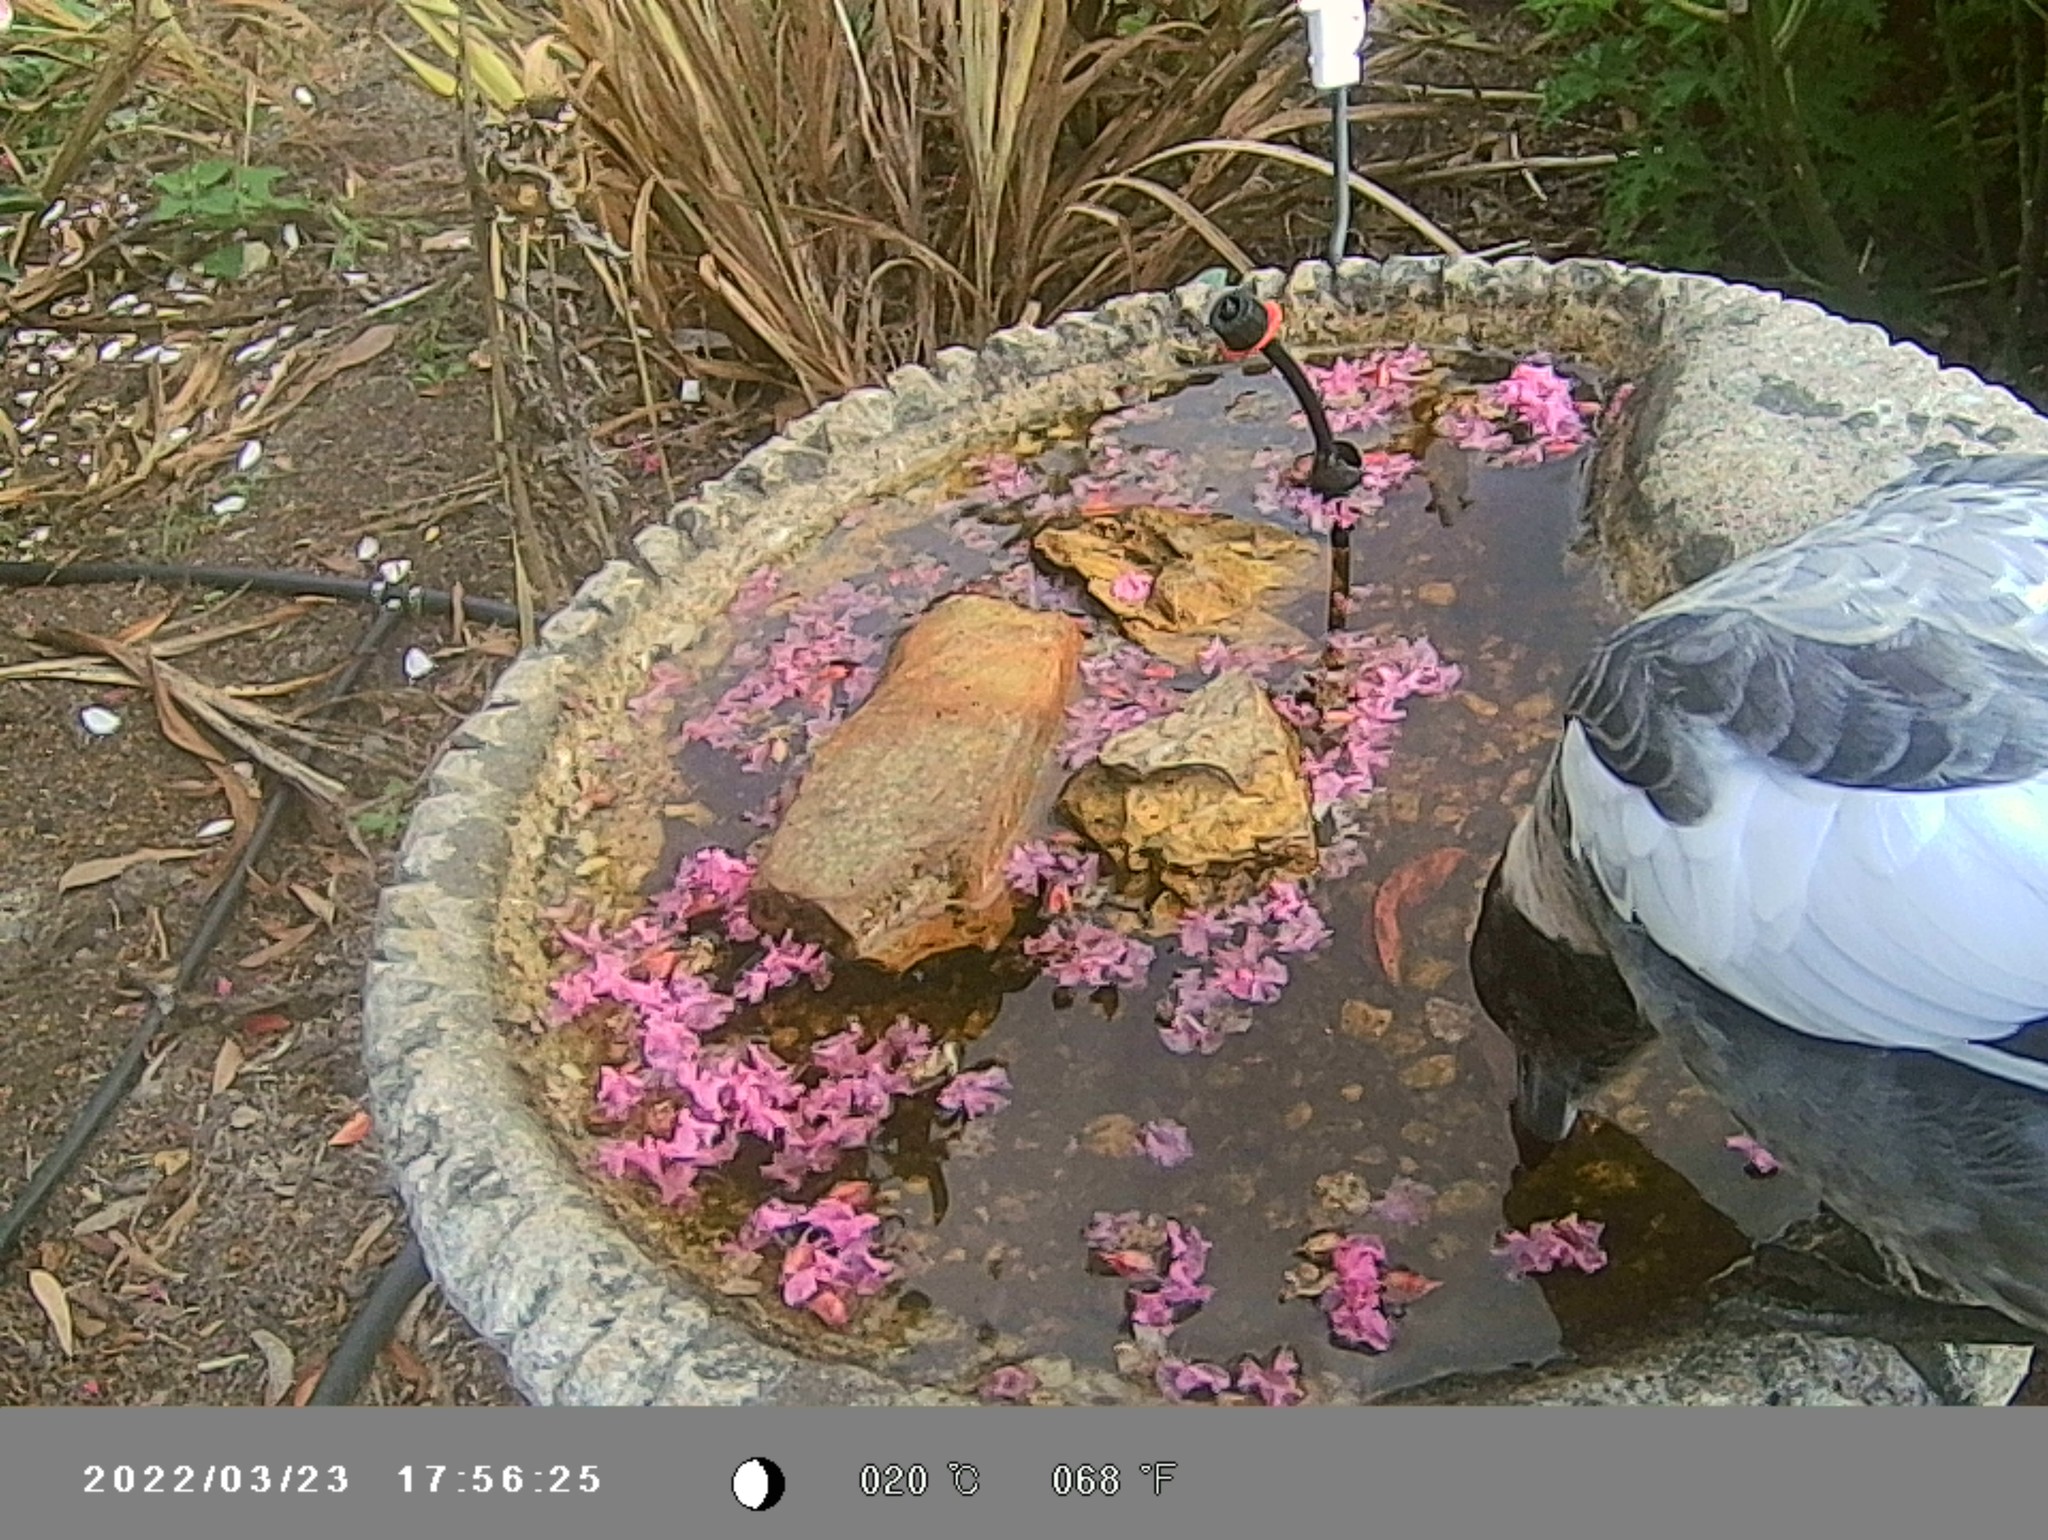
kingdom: Animalia
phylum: Chordata
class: Aves
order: Passeriformes
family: Cracticidae
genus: Gymnorhina
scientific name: Gymnorhina tibicen
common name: Australian magpie
